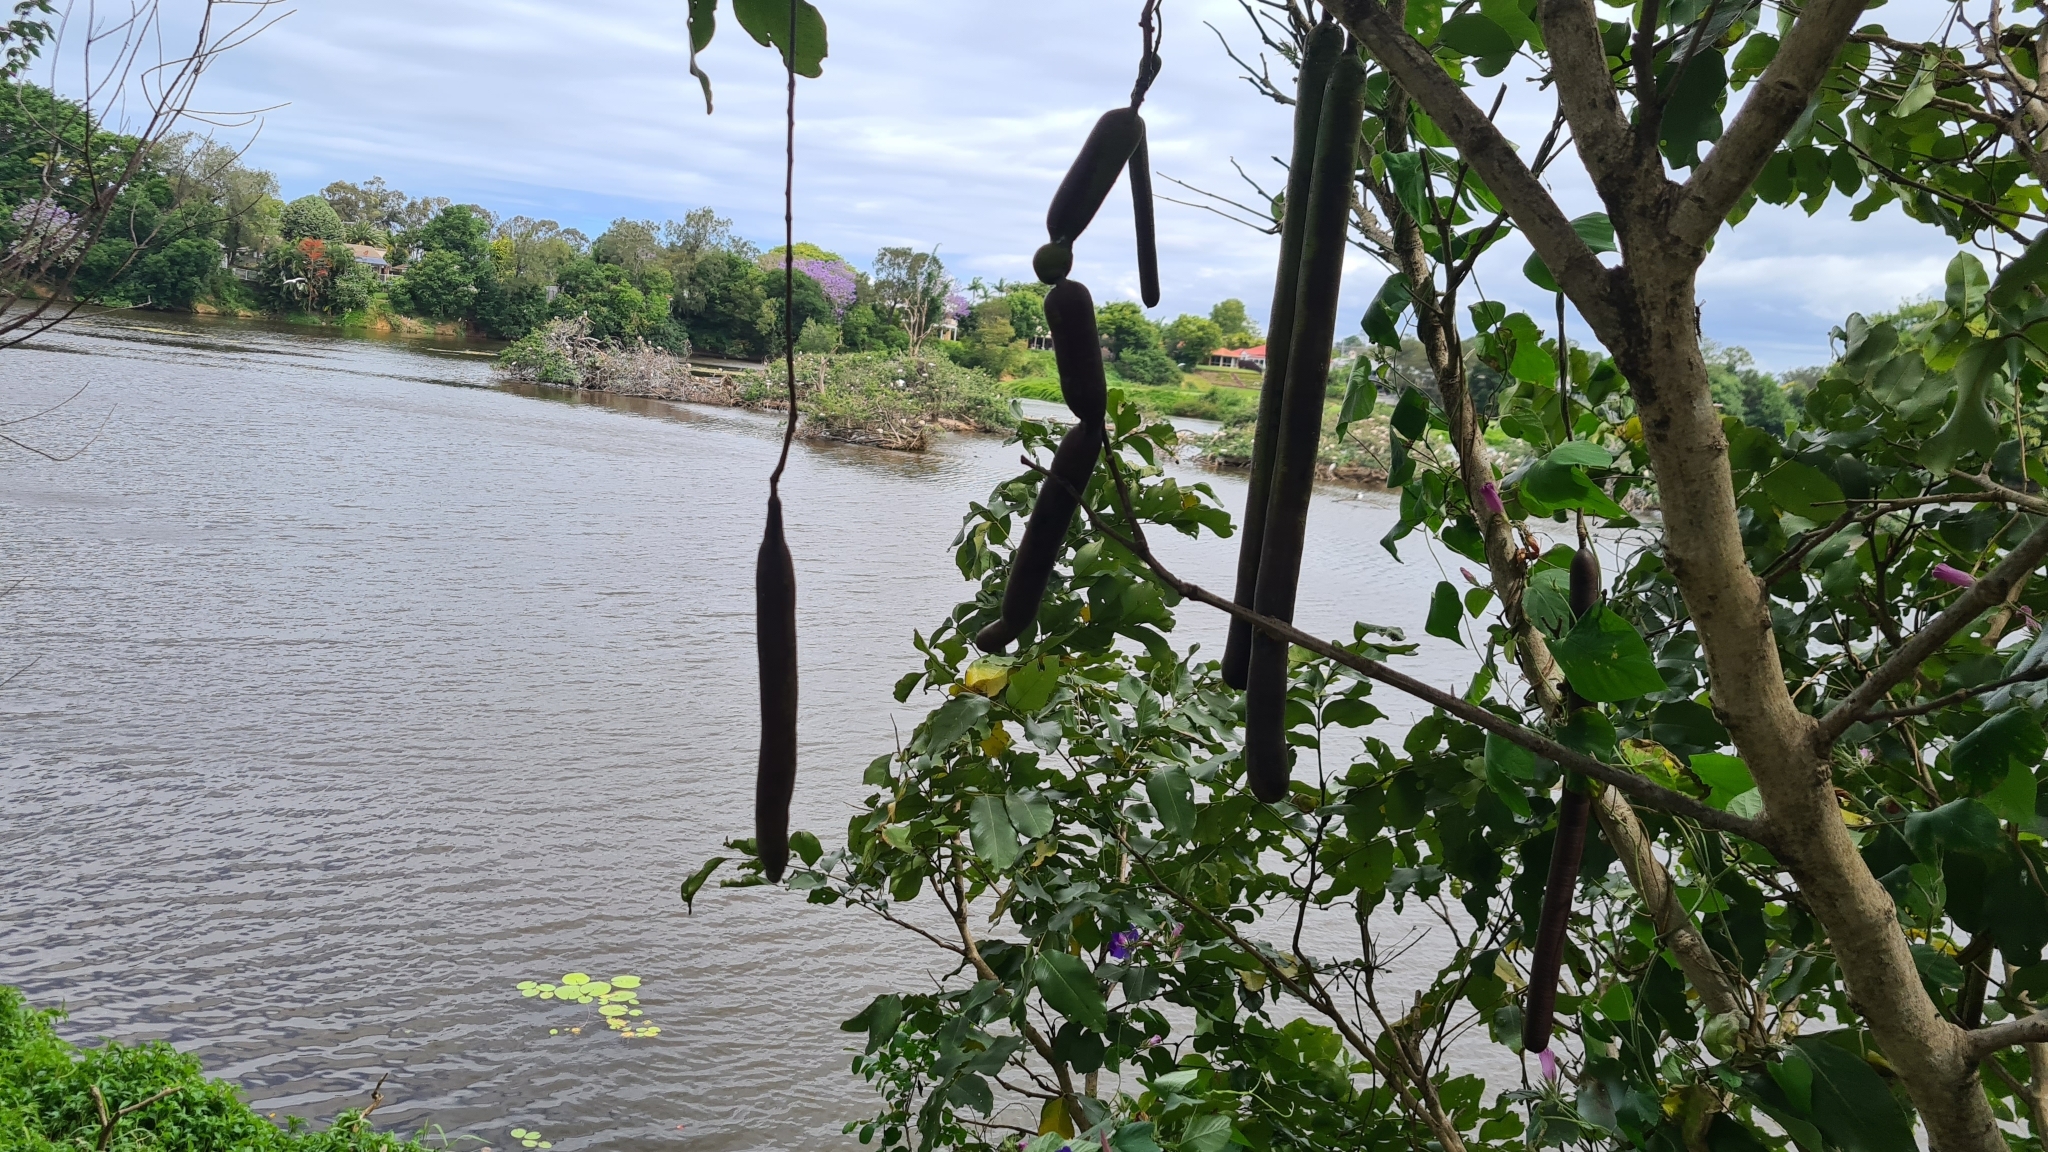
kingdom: Plantae
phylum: Tracheophyta
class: Magnoliopsida
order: Fabales
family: Fabaceae
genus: Cassia
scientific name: Cassia fistula
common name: Golden shower
